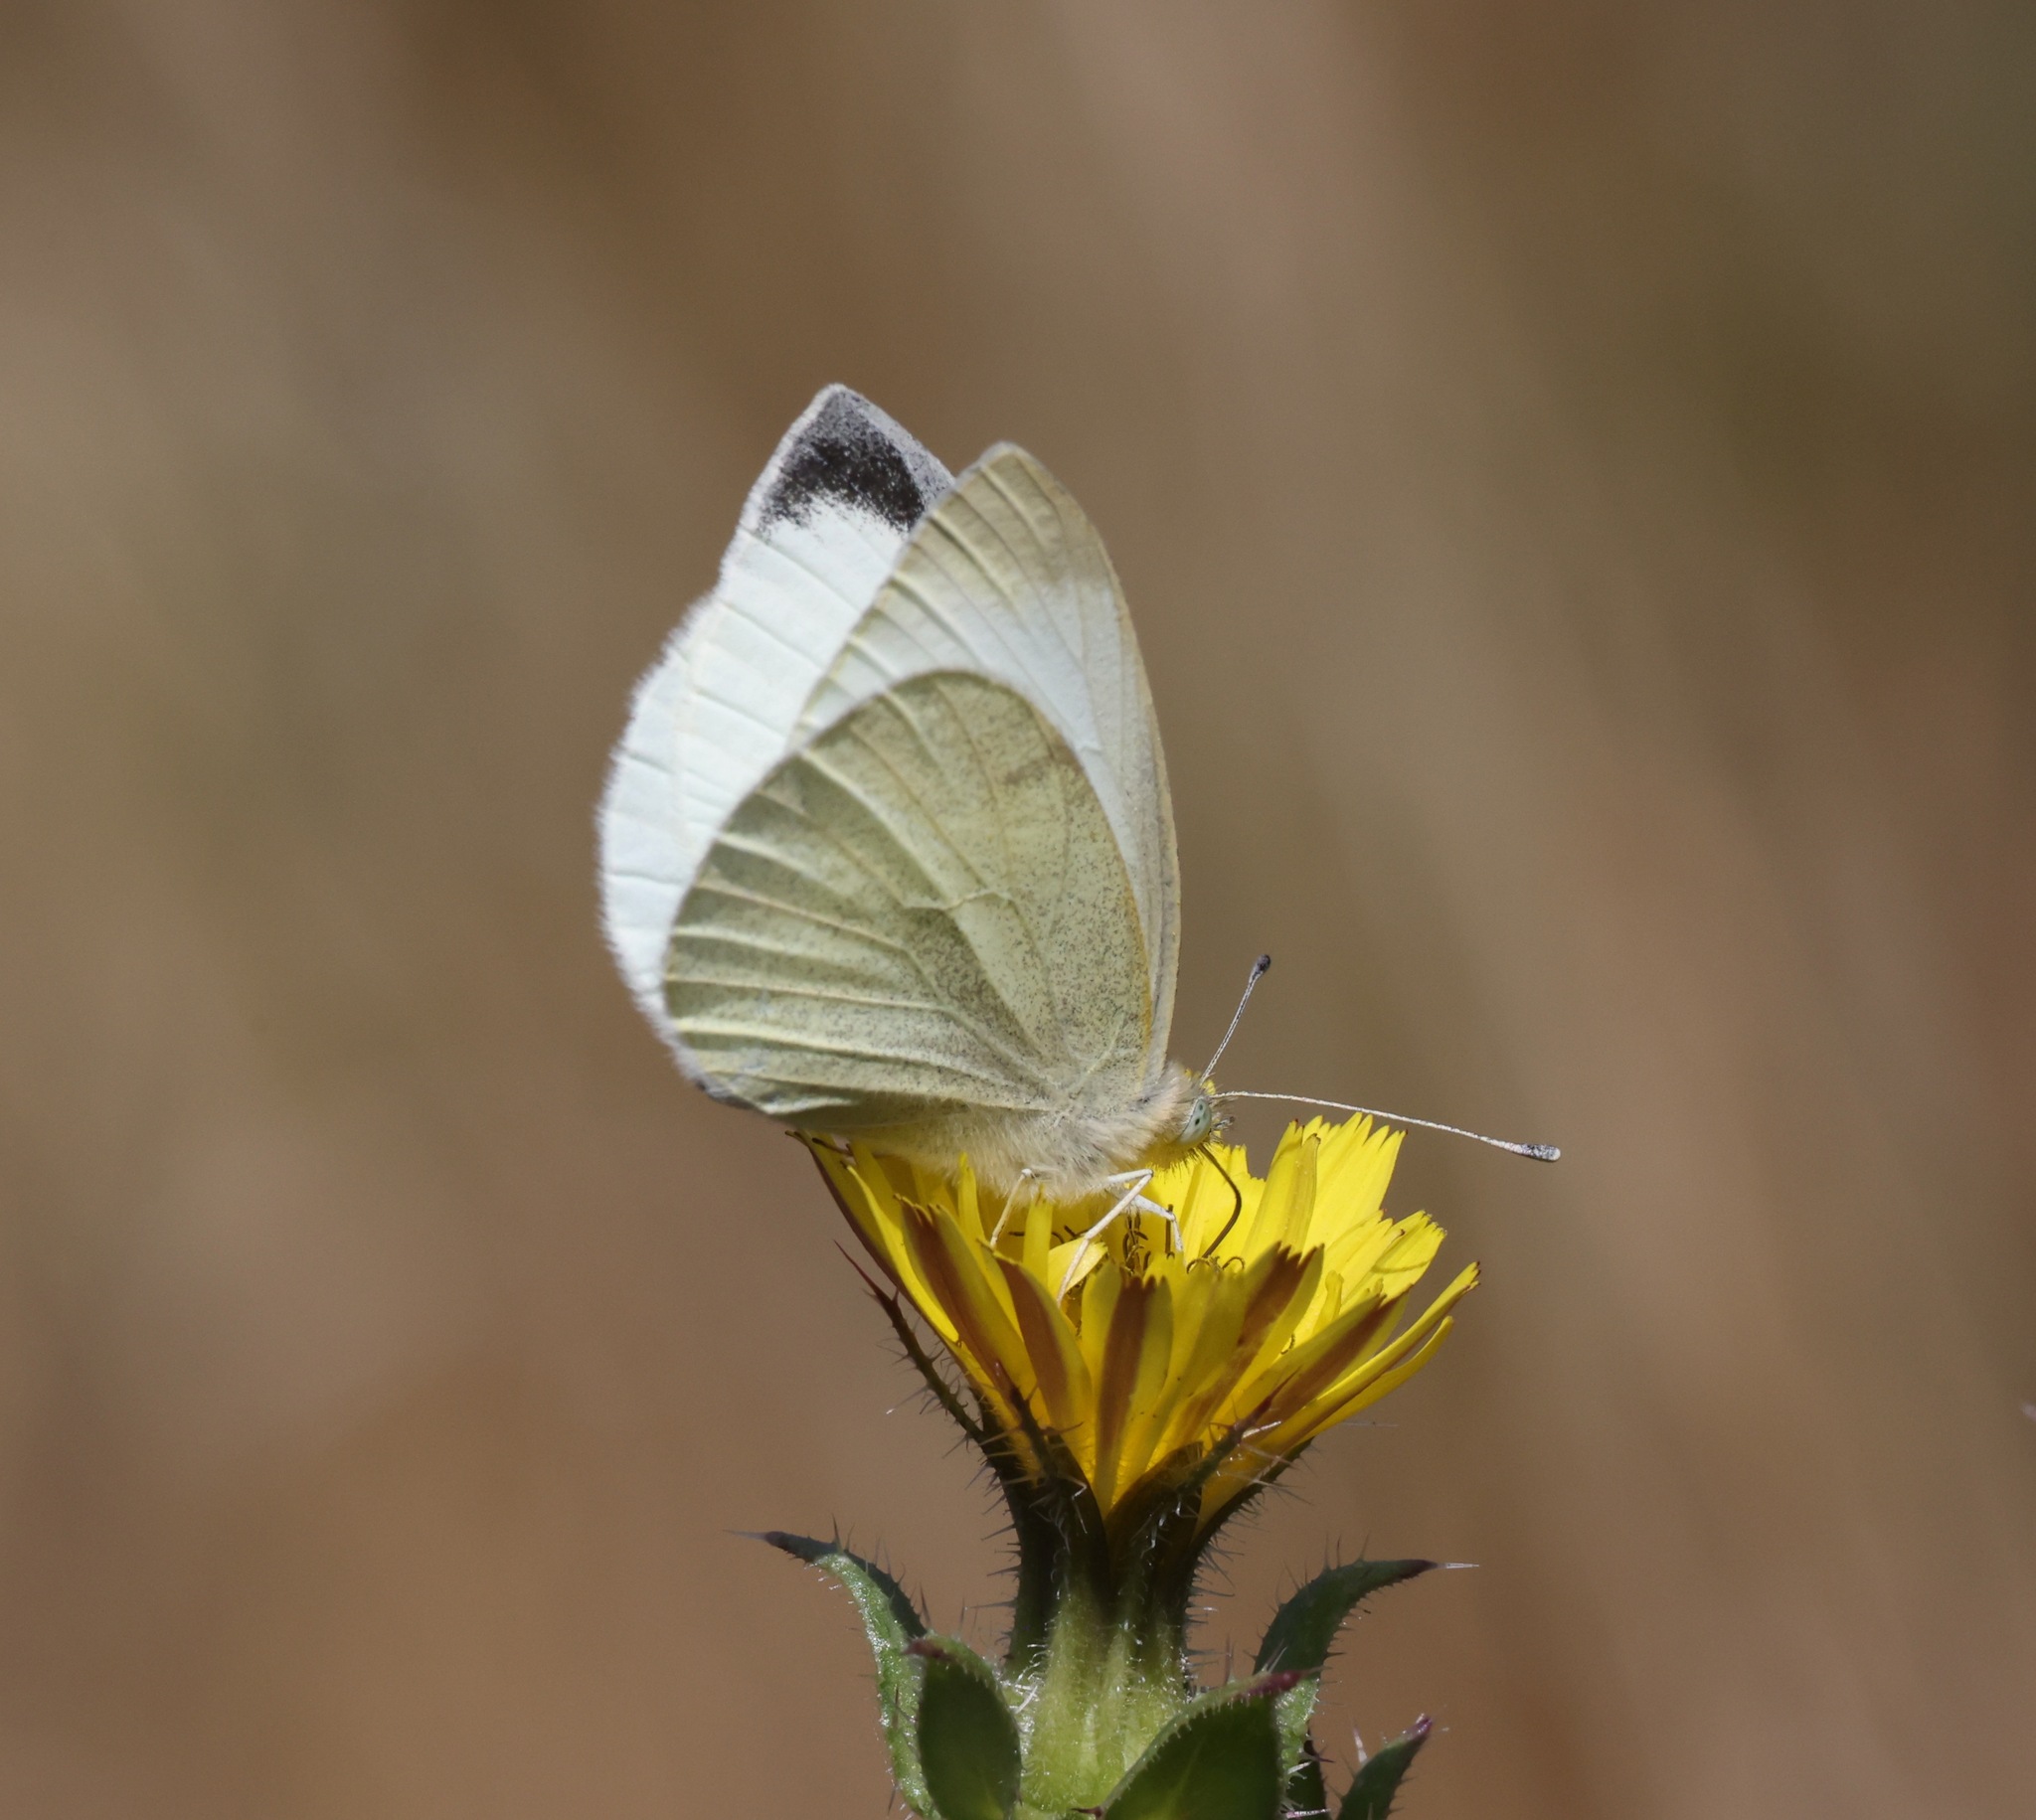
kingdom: Animalia
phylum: Arthropoda
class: Insecta
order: Lepidoptera
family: Pieridae
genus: Pieris
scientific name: Pieris rapae
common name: Small white
